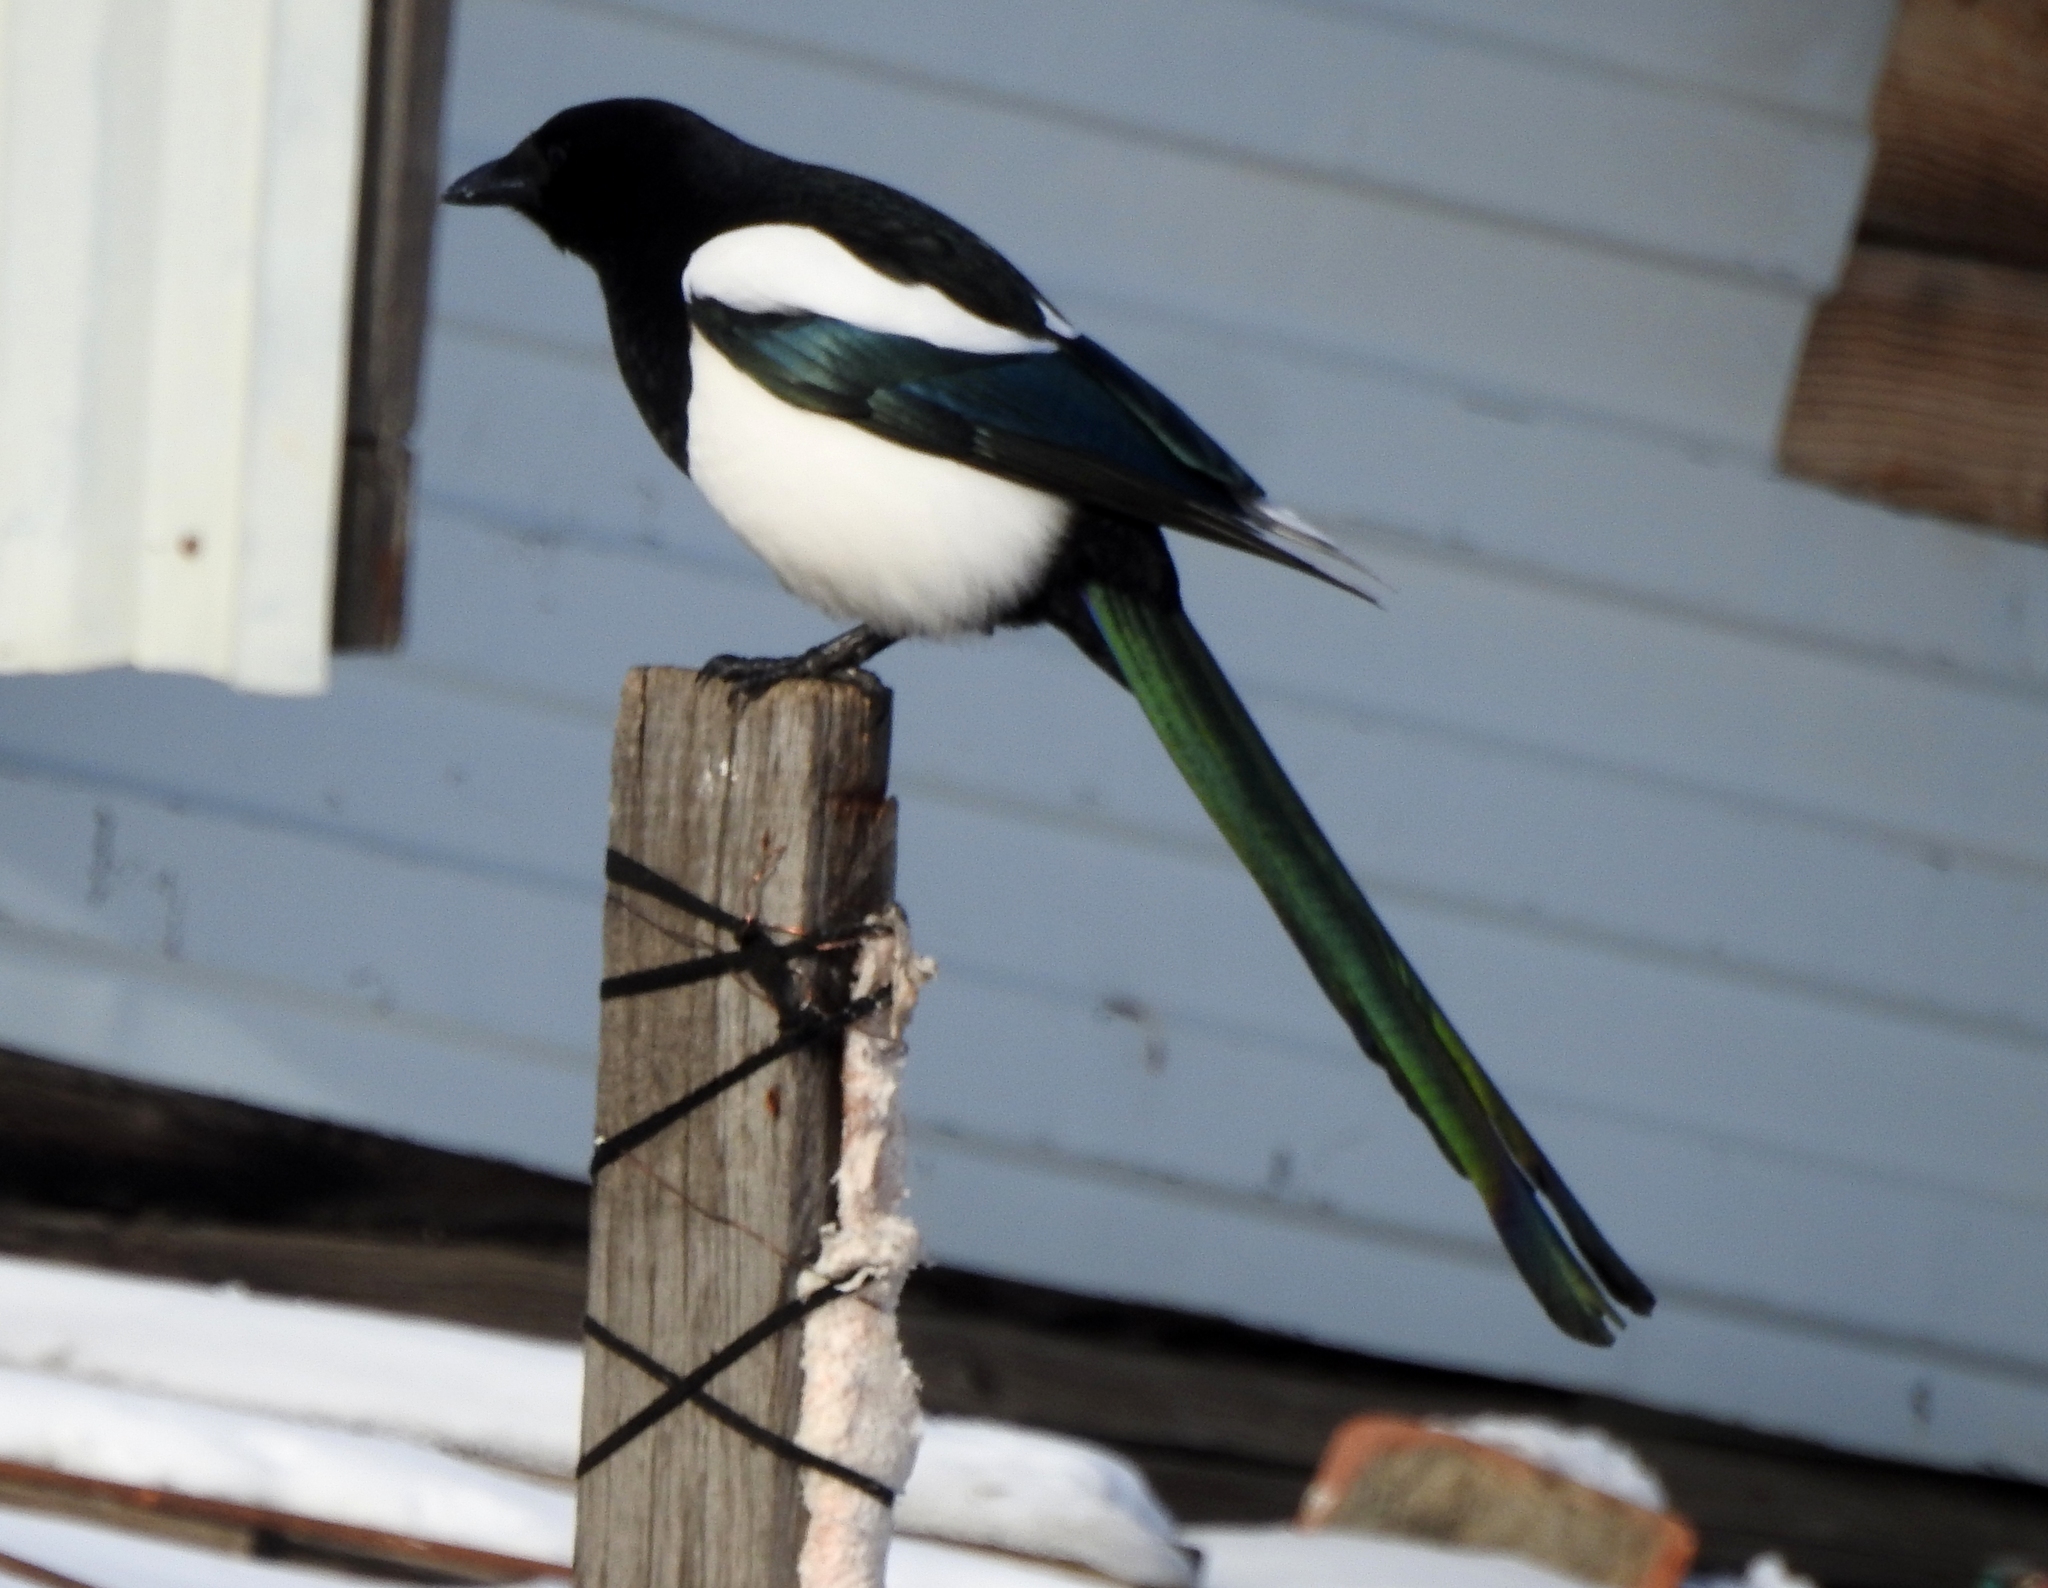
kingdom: Animalia
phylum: Chordata
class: Aves
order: Passeriformes
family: Corvidae
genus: Pica
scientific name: Pica pica
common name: Eurasian magpie
